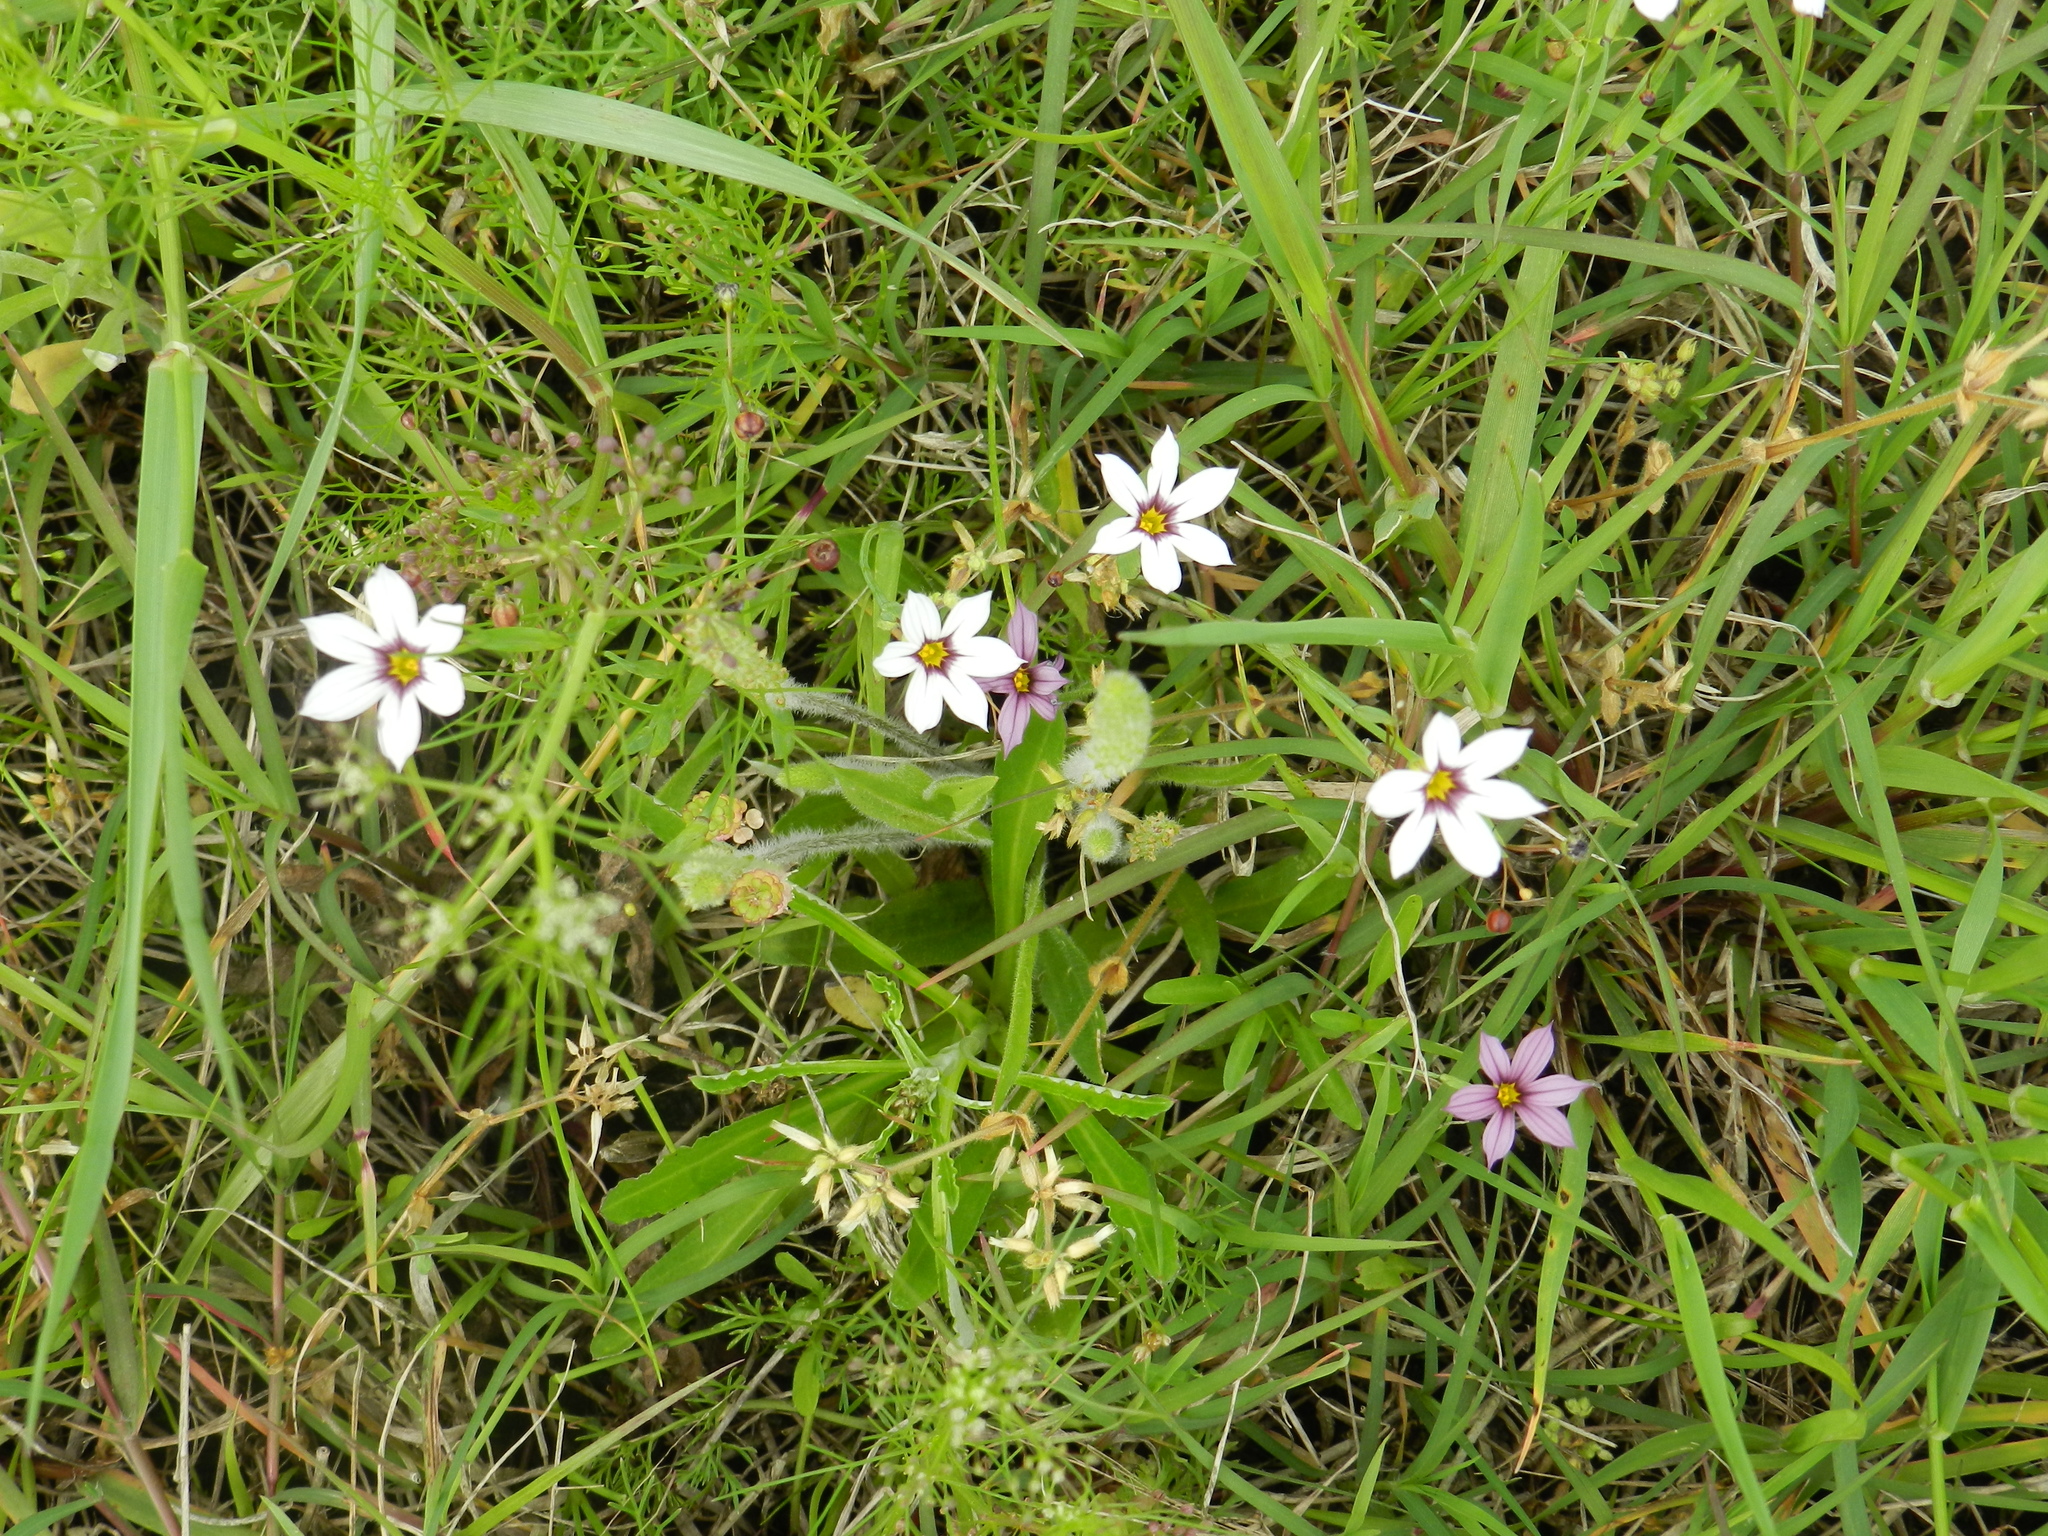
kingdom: Plantae
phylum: Tracheophyta
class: Liliopsida
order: Asparagales
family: Iridaceae
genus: Sisyrinchium
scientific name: Sisyrinchium chilense
